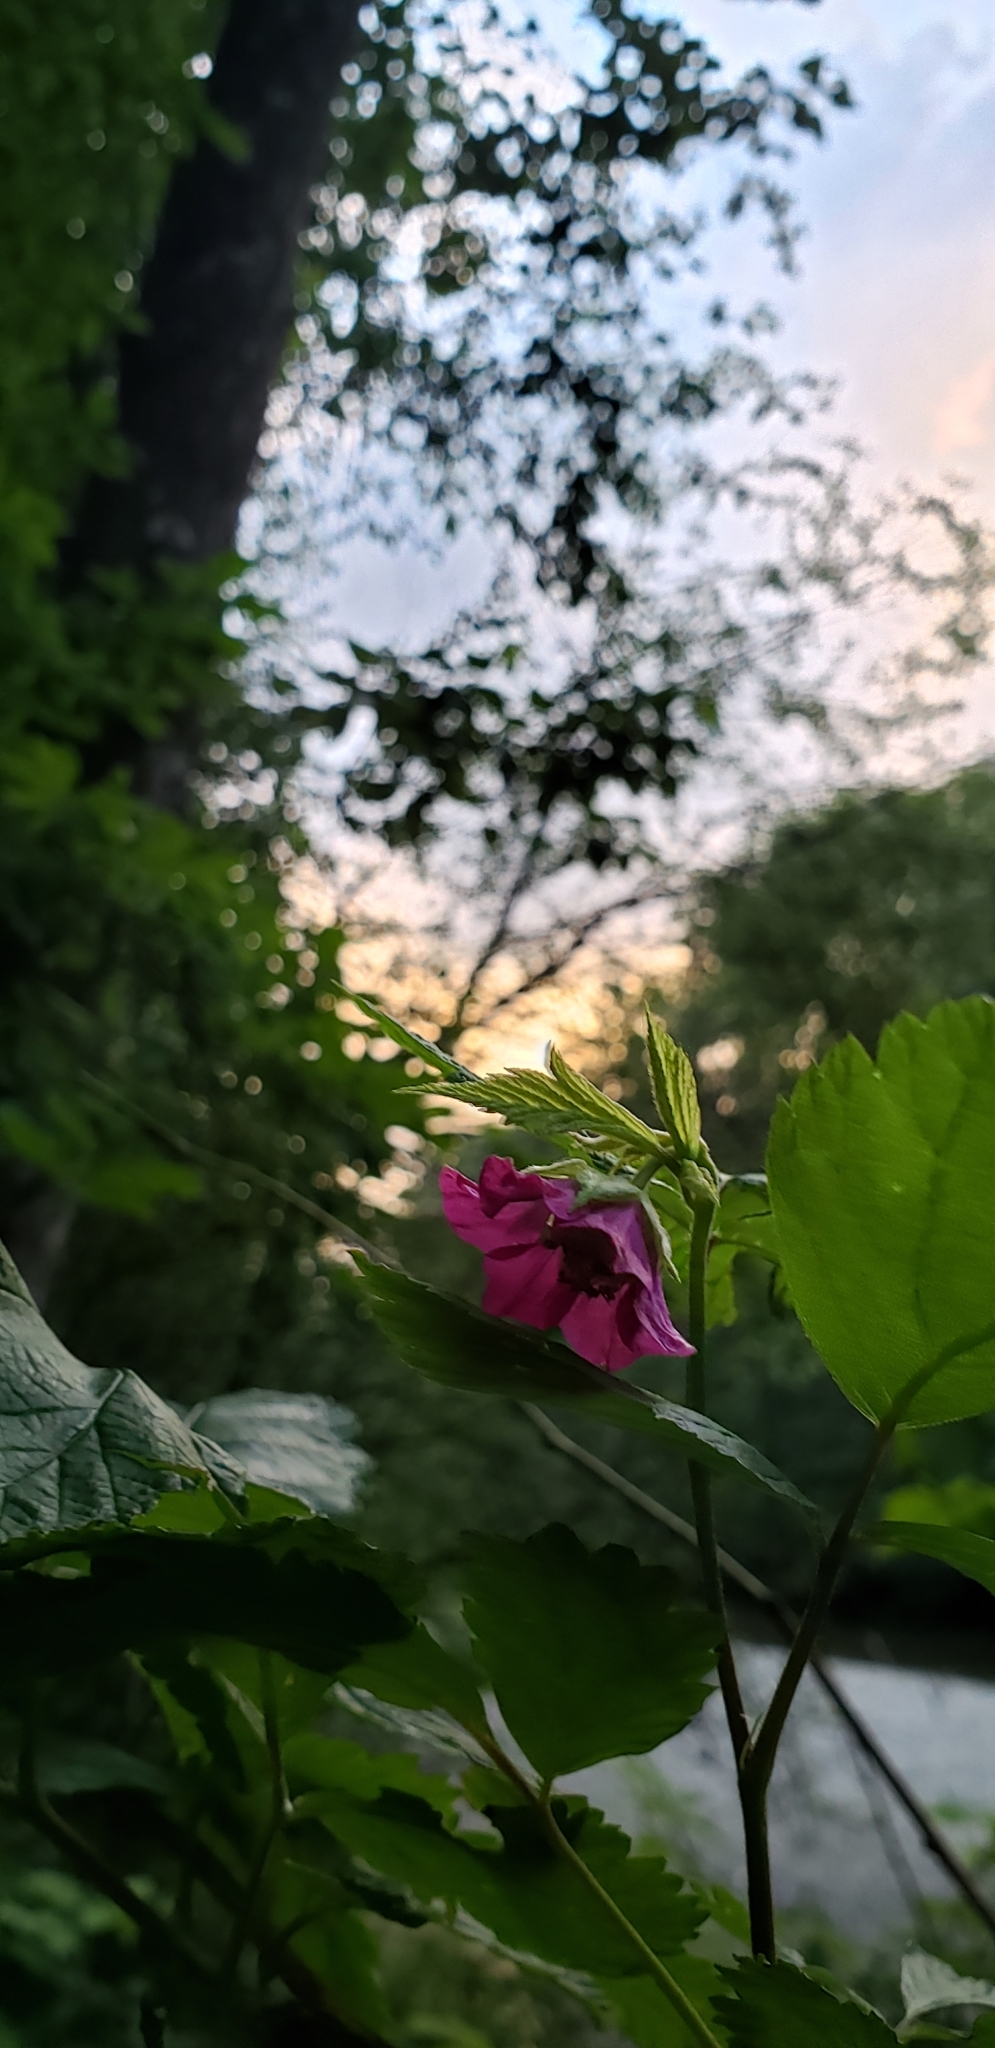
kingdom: Plantae
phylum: Tracheophyta
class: Magnoliopsida
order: Rosales
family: Rosaceae
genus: Rubus
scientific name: Rubus spectabilis
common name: Salmonberry
